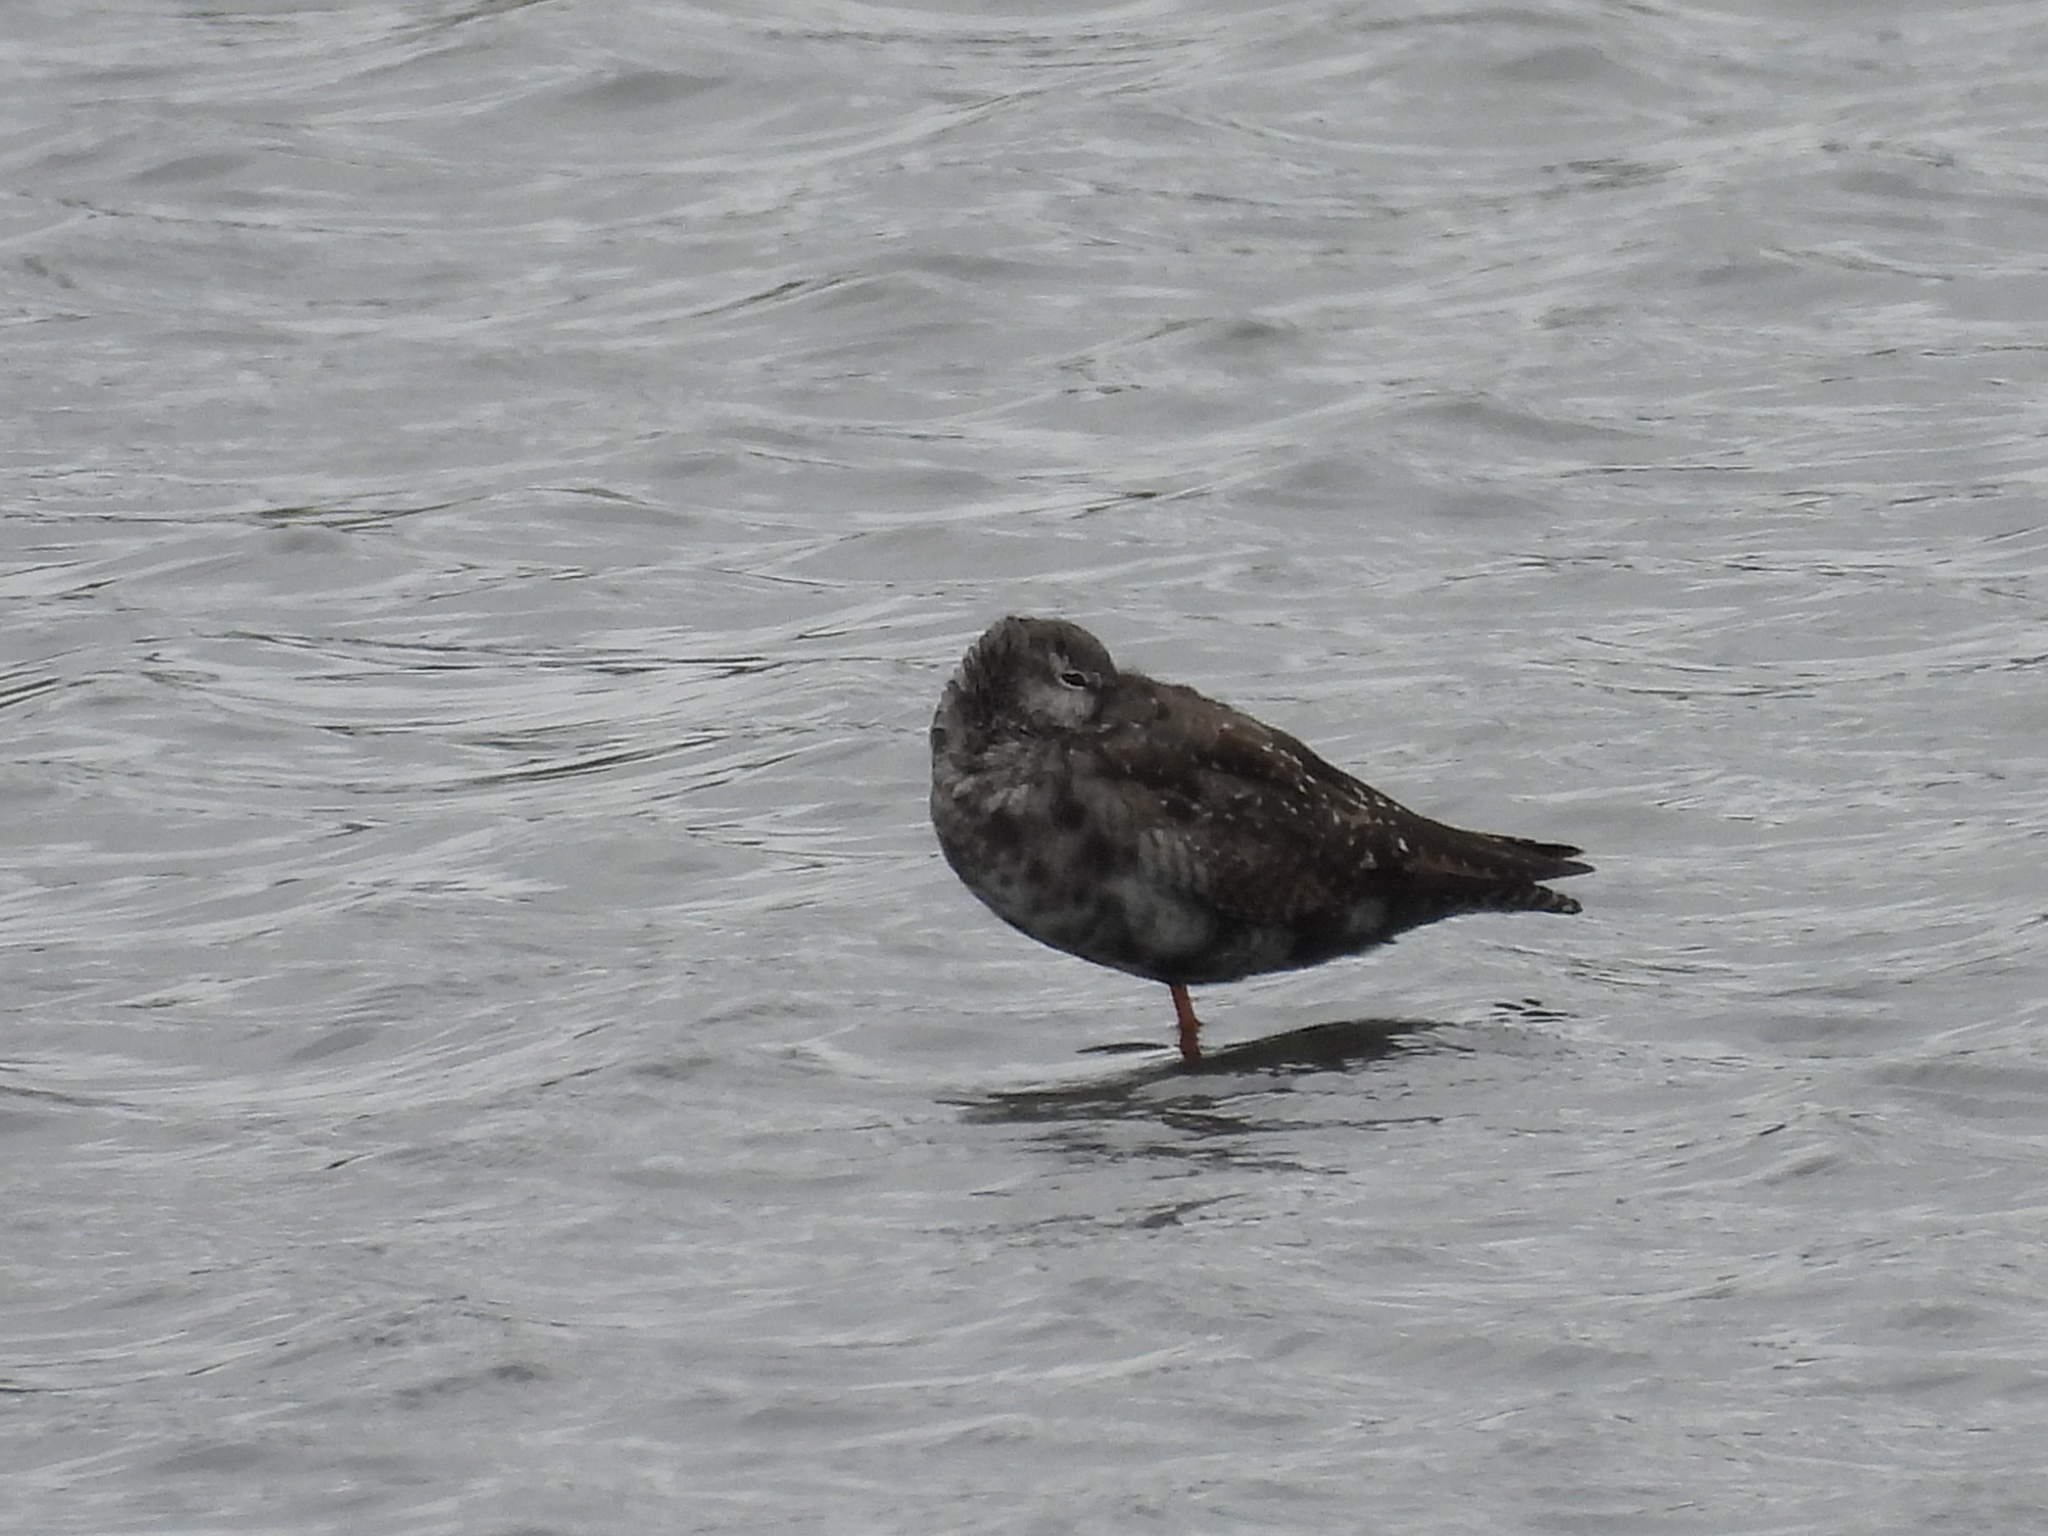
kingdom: Animalia
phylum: Chordata
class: Aves
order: Charadriiformes
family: Scolopacidae
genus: Tringa
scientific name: Tringa erythropus
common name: Spotted redshank
